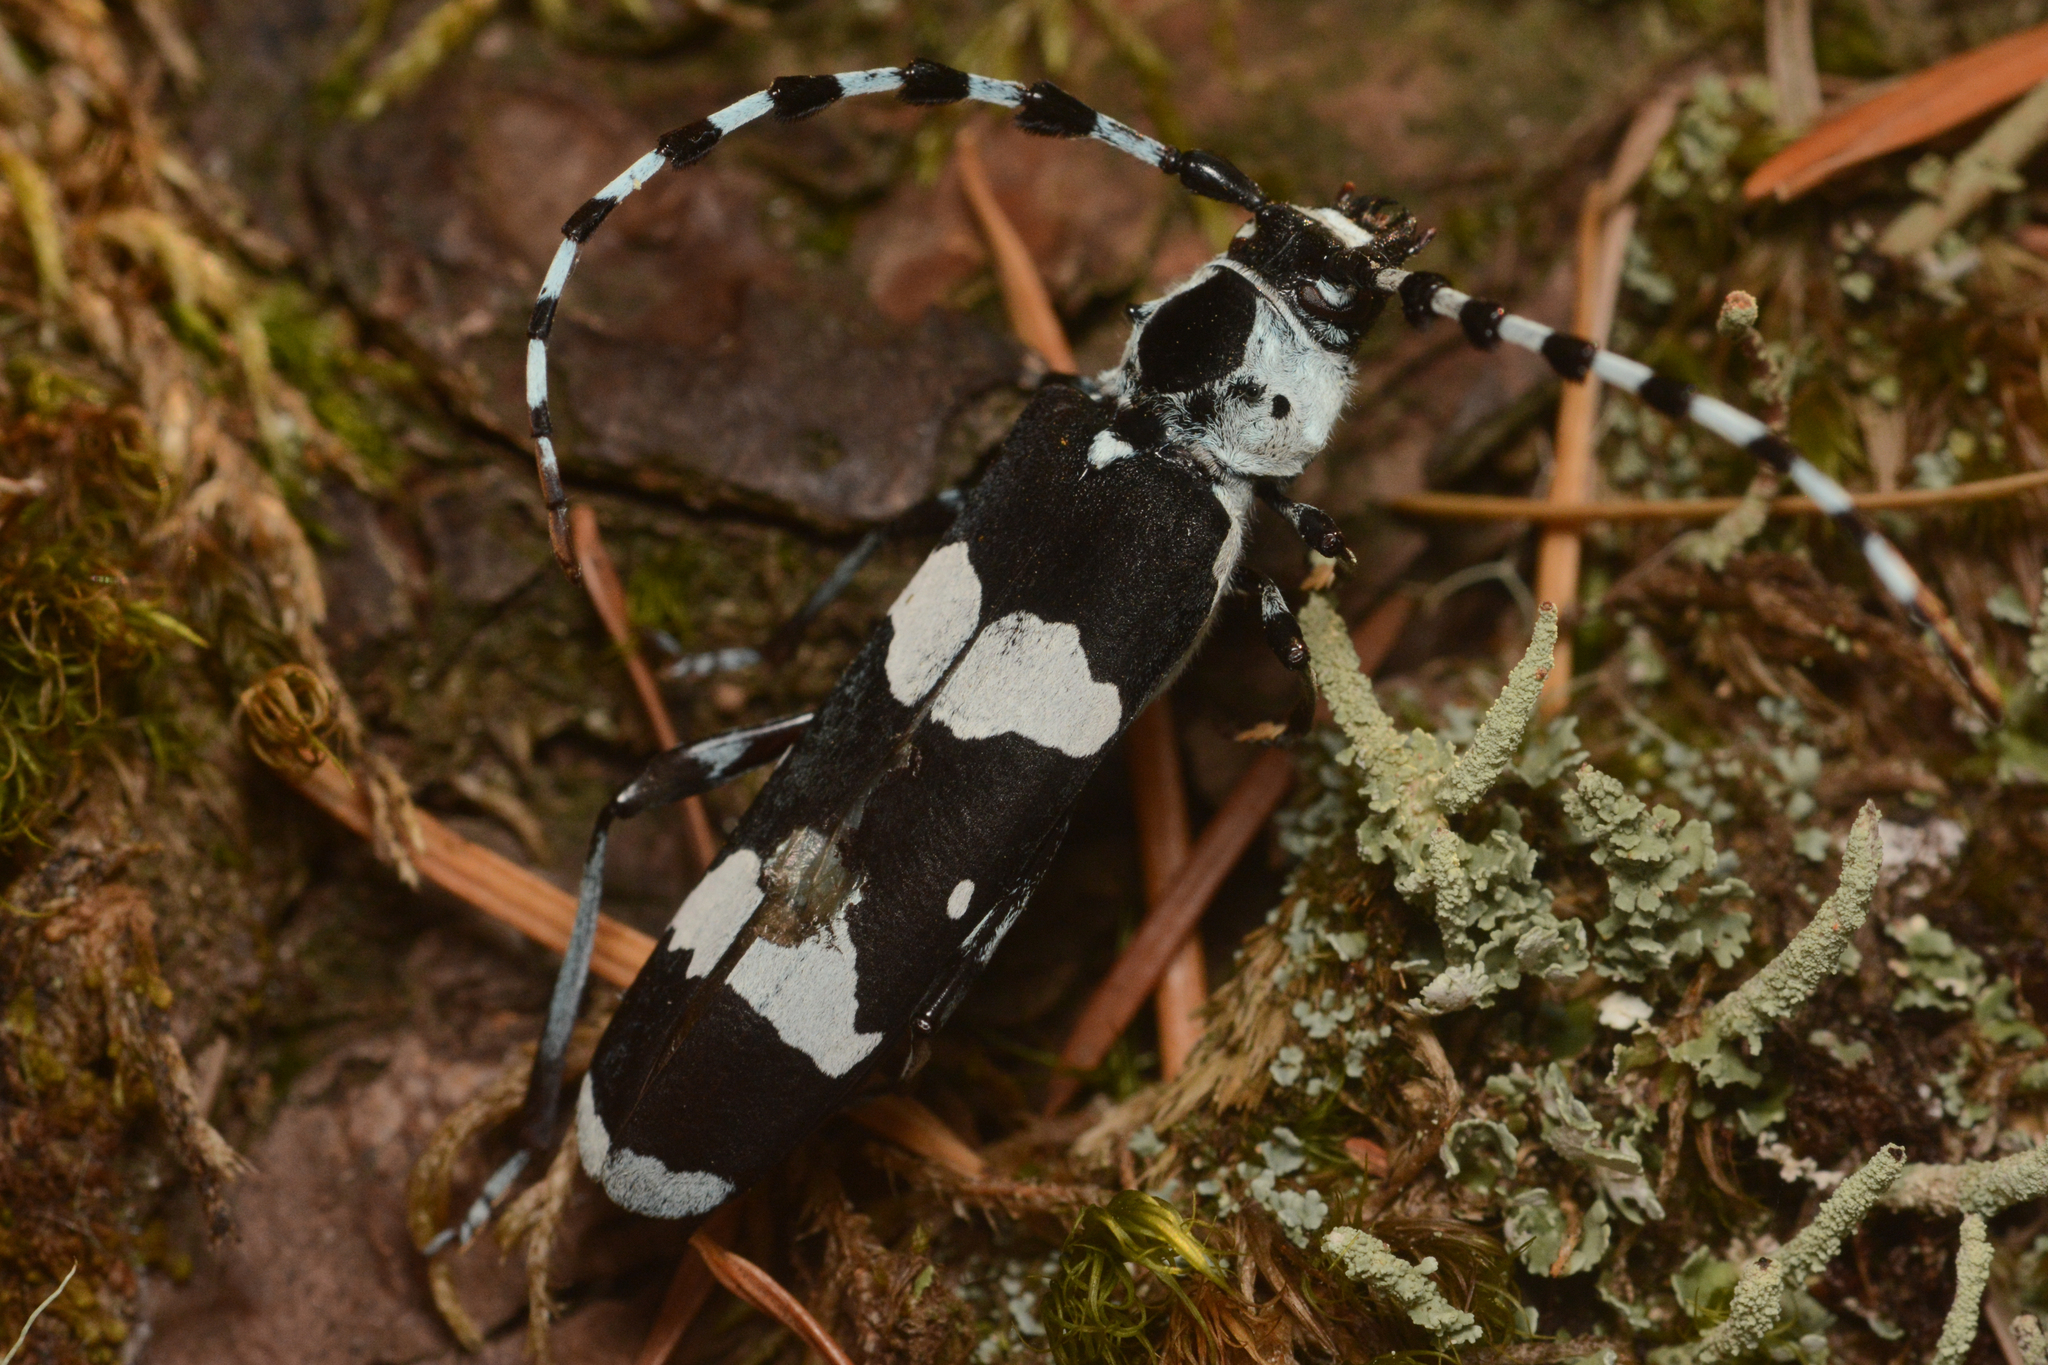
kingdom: Animalia
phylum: Arthropoda
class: Insecta
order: Coleoptera
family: Cerambycidae
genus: Rosalia
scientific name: Rosalia funebris
